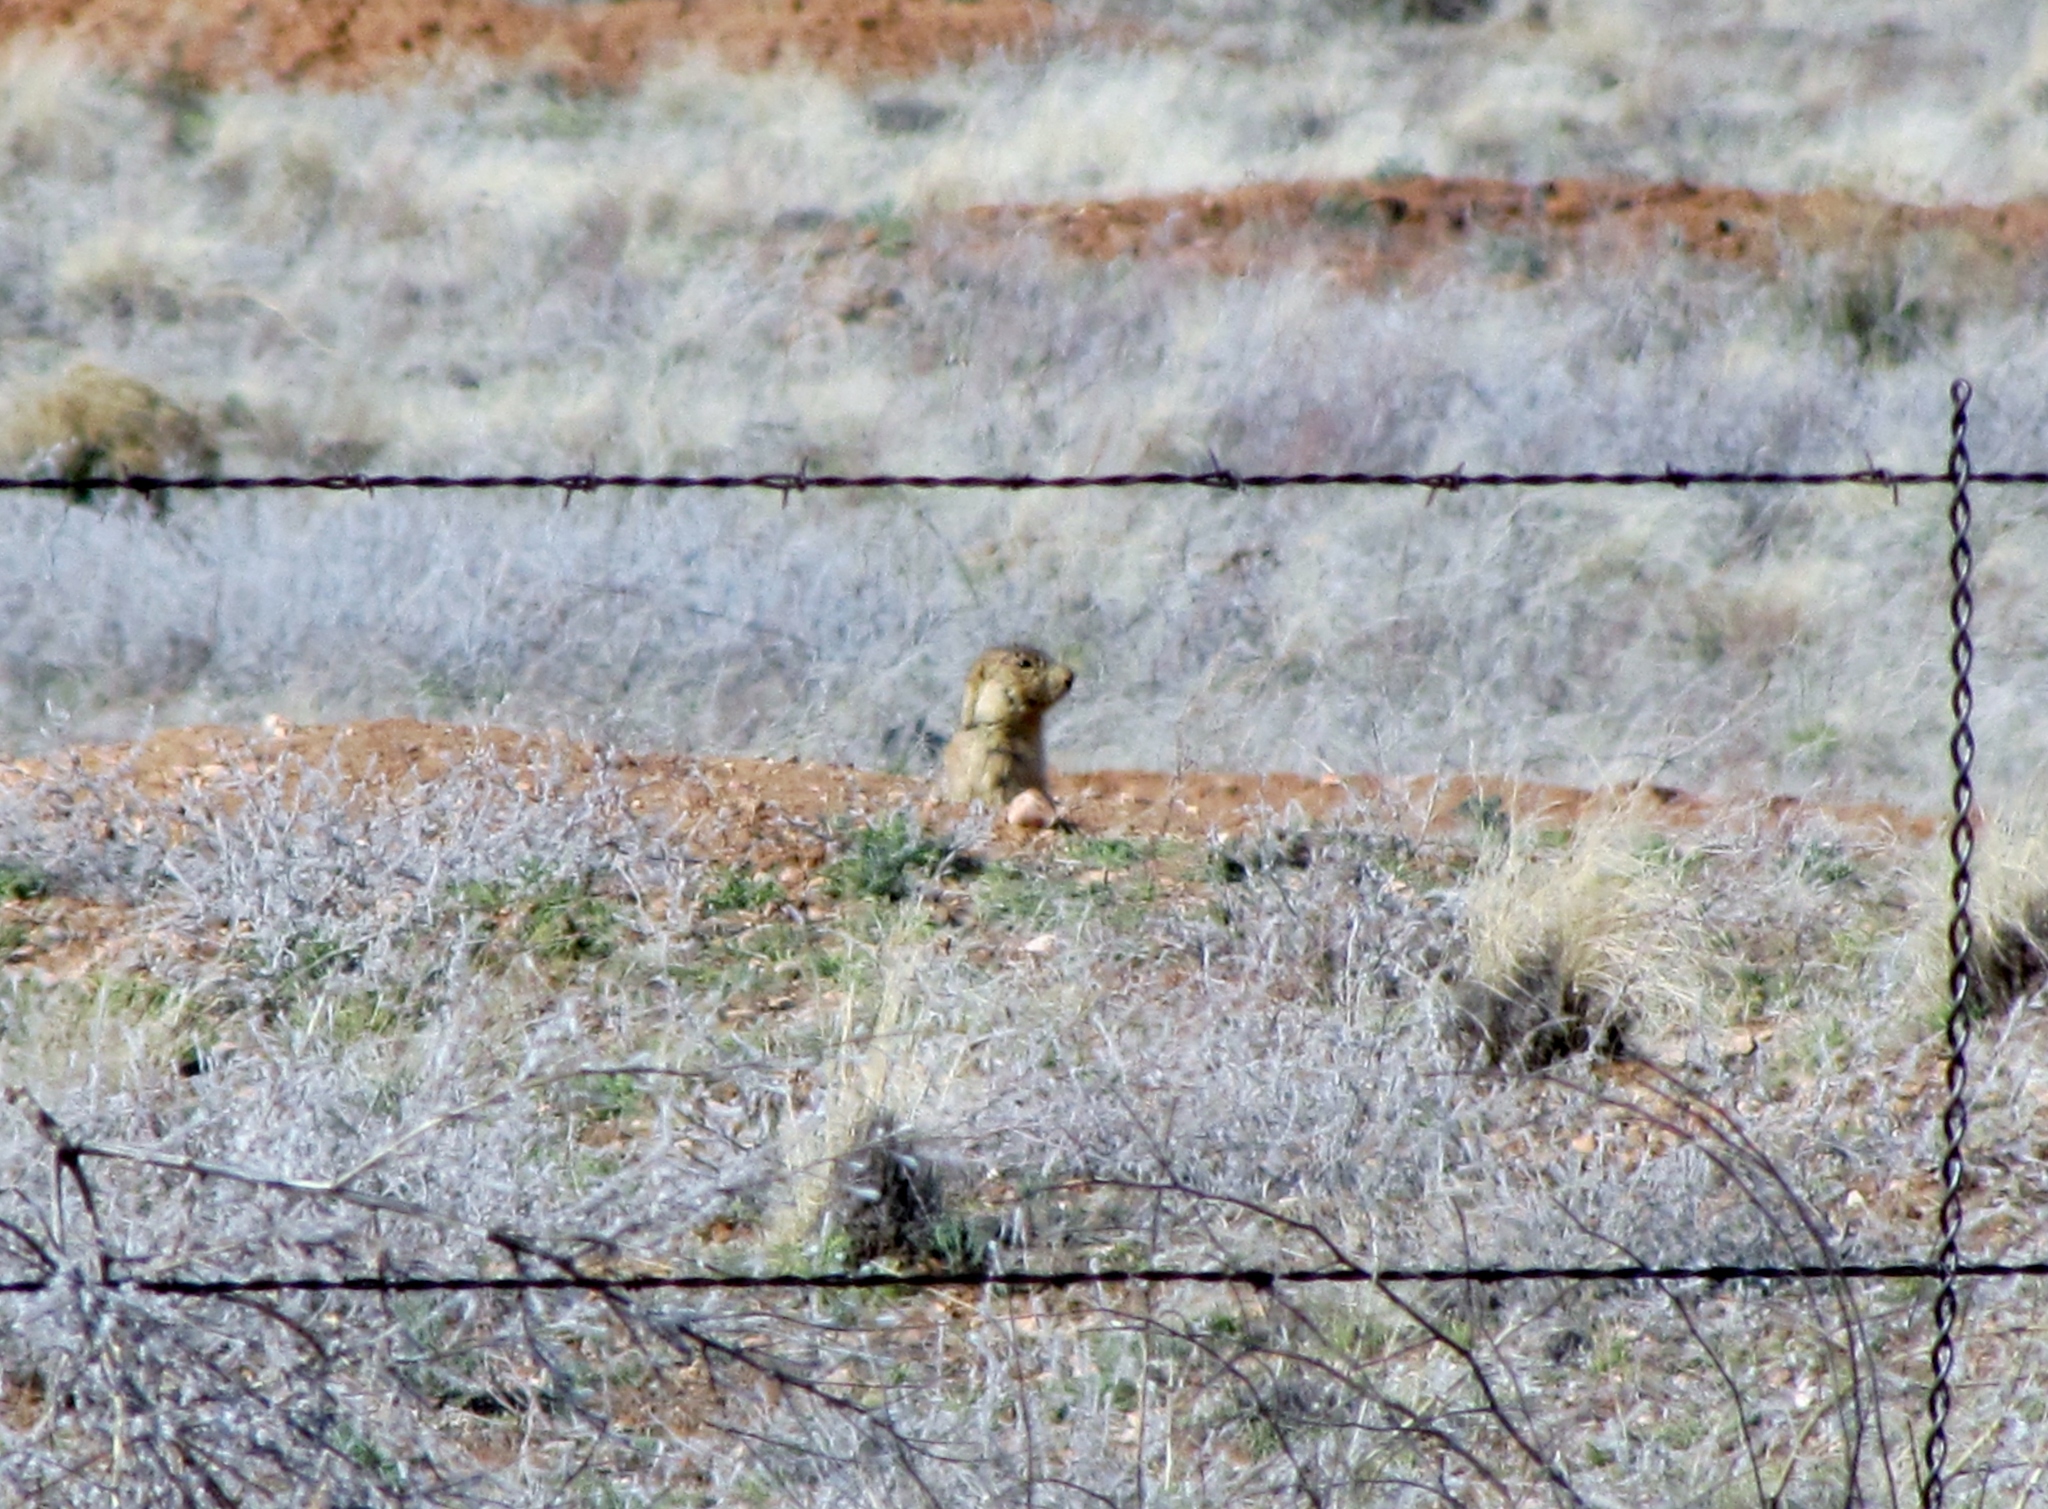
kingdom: Animalia
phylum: Chordata
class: Mammalia
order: Rodentia
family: Sciuridae
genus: Cynomys
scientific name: Cynomys gunnisoni
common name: Gunnison's prairie dog
